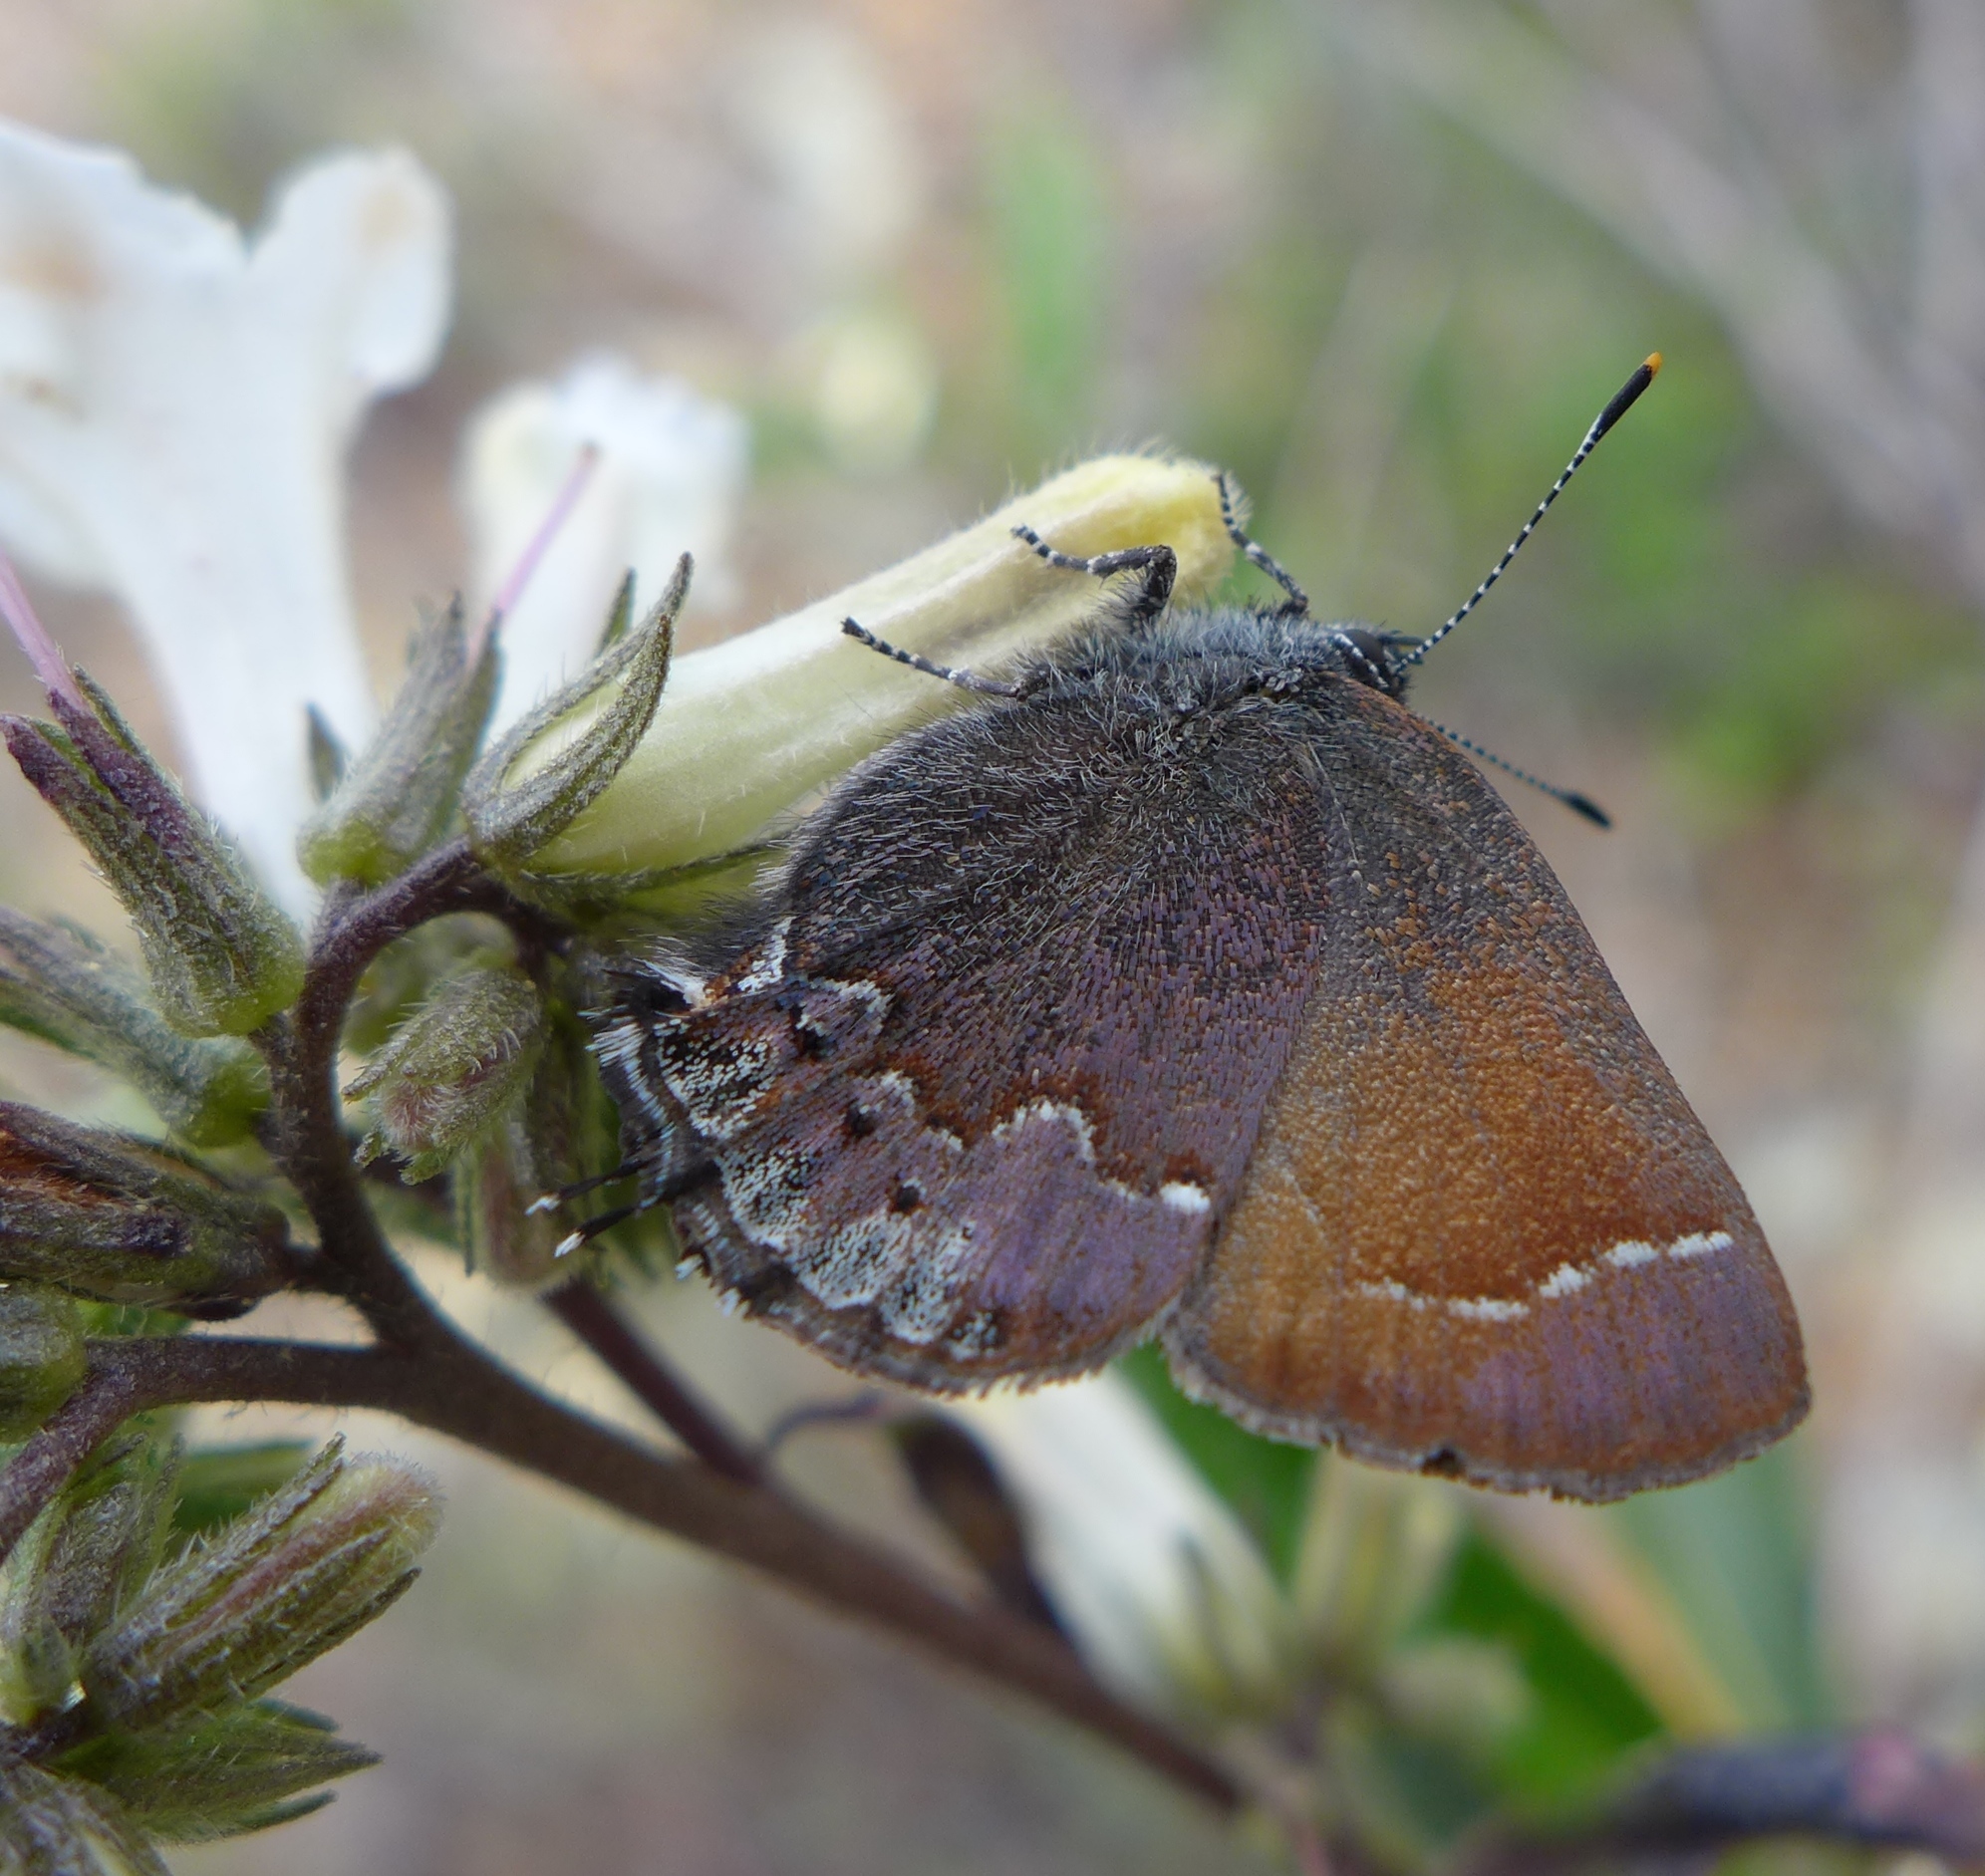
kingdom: Animalia
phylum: Arthropoda
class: Insecta
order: Lepidoptera
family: Lycaenidae
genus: Callophrys
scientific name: Callophrys muiri
